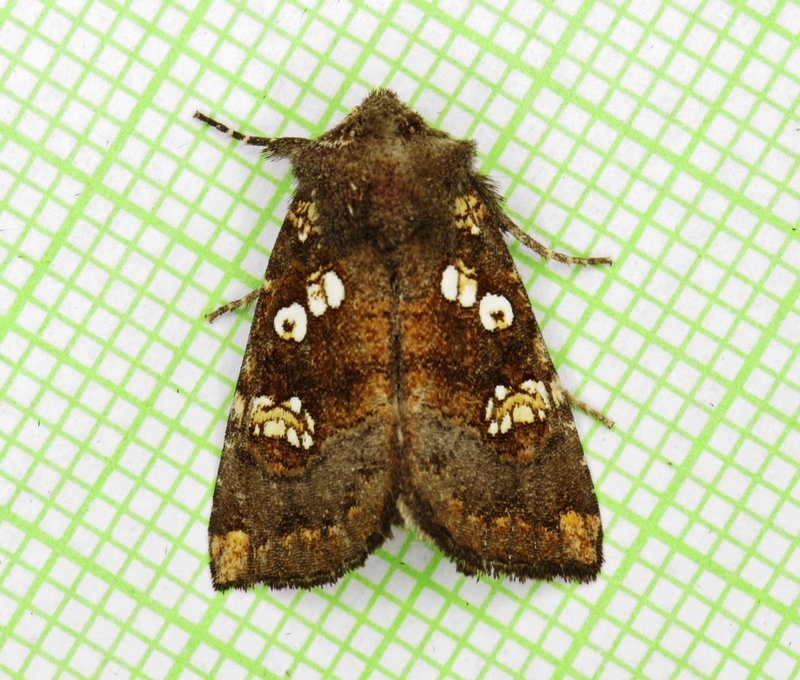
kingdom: Animalia
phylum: Arthropoda
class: Insecta
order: Lepidoptera
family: Noctuidae
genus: Papaipema
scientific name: Papaipema unimoda
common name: Meadow rue borer moth
